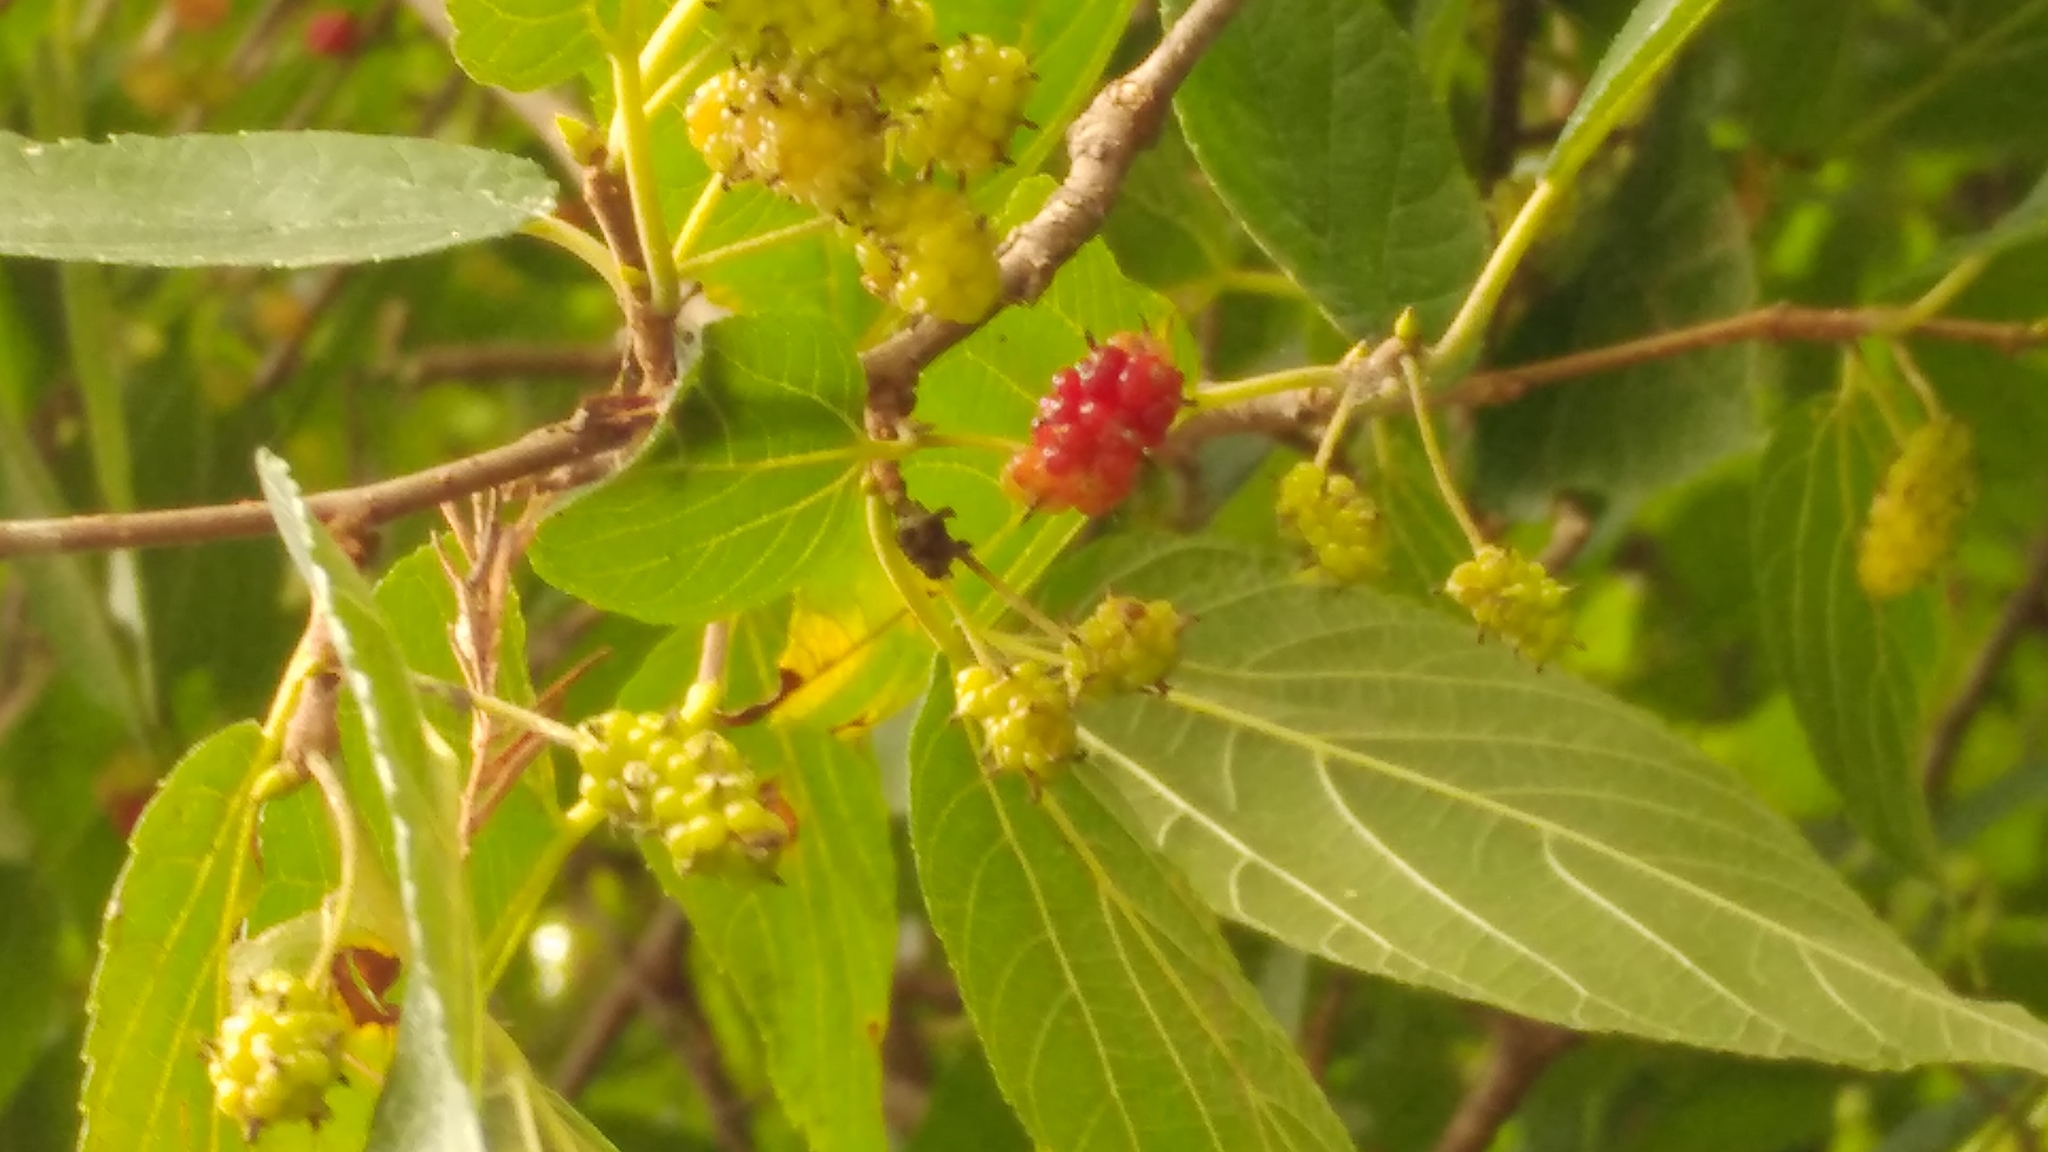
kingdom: Plantae
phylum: Tracheophyta
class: Magnoliopsida
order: Rosales
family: Moraceae
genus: Morus
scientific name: Morus nigra
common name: Black mulberry
